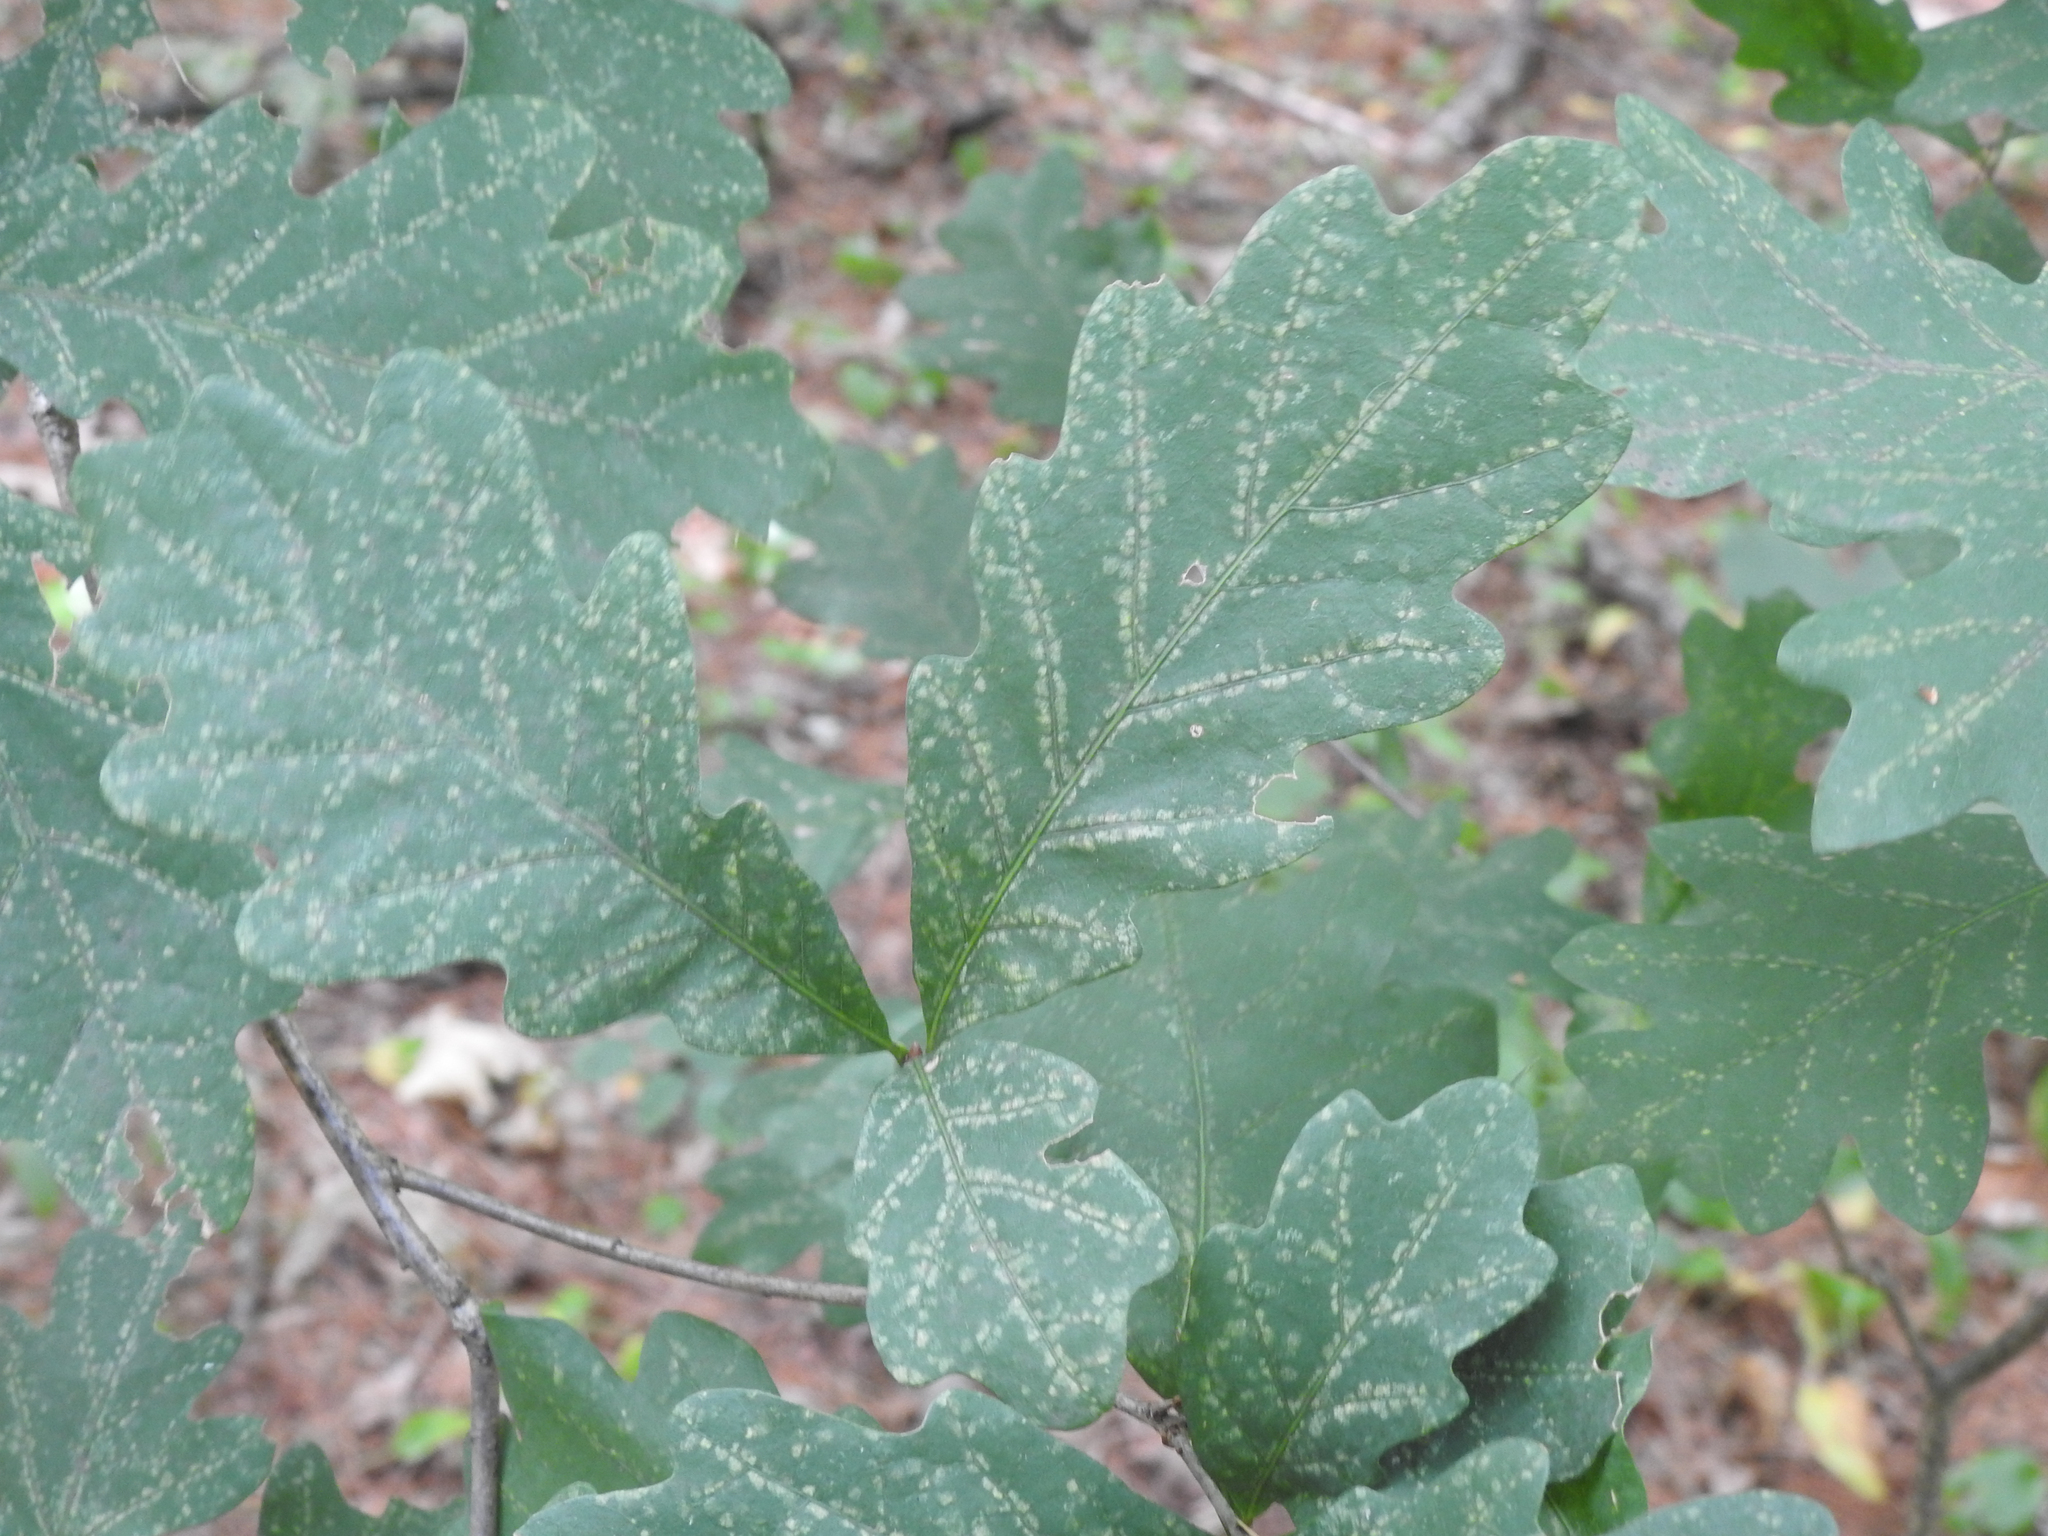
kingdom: Plantae
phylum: Tracheophyta
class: Magnoliopsida
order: Fagales
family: Fagaceae
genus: Quercus
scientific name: Quercus alba
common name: White oak
